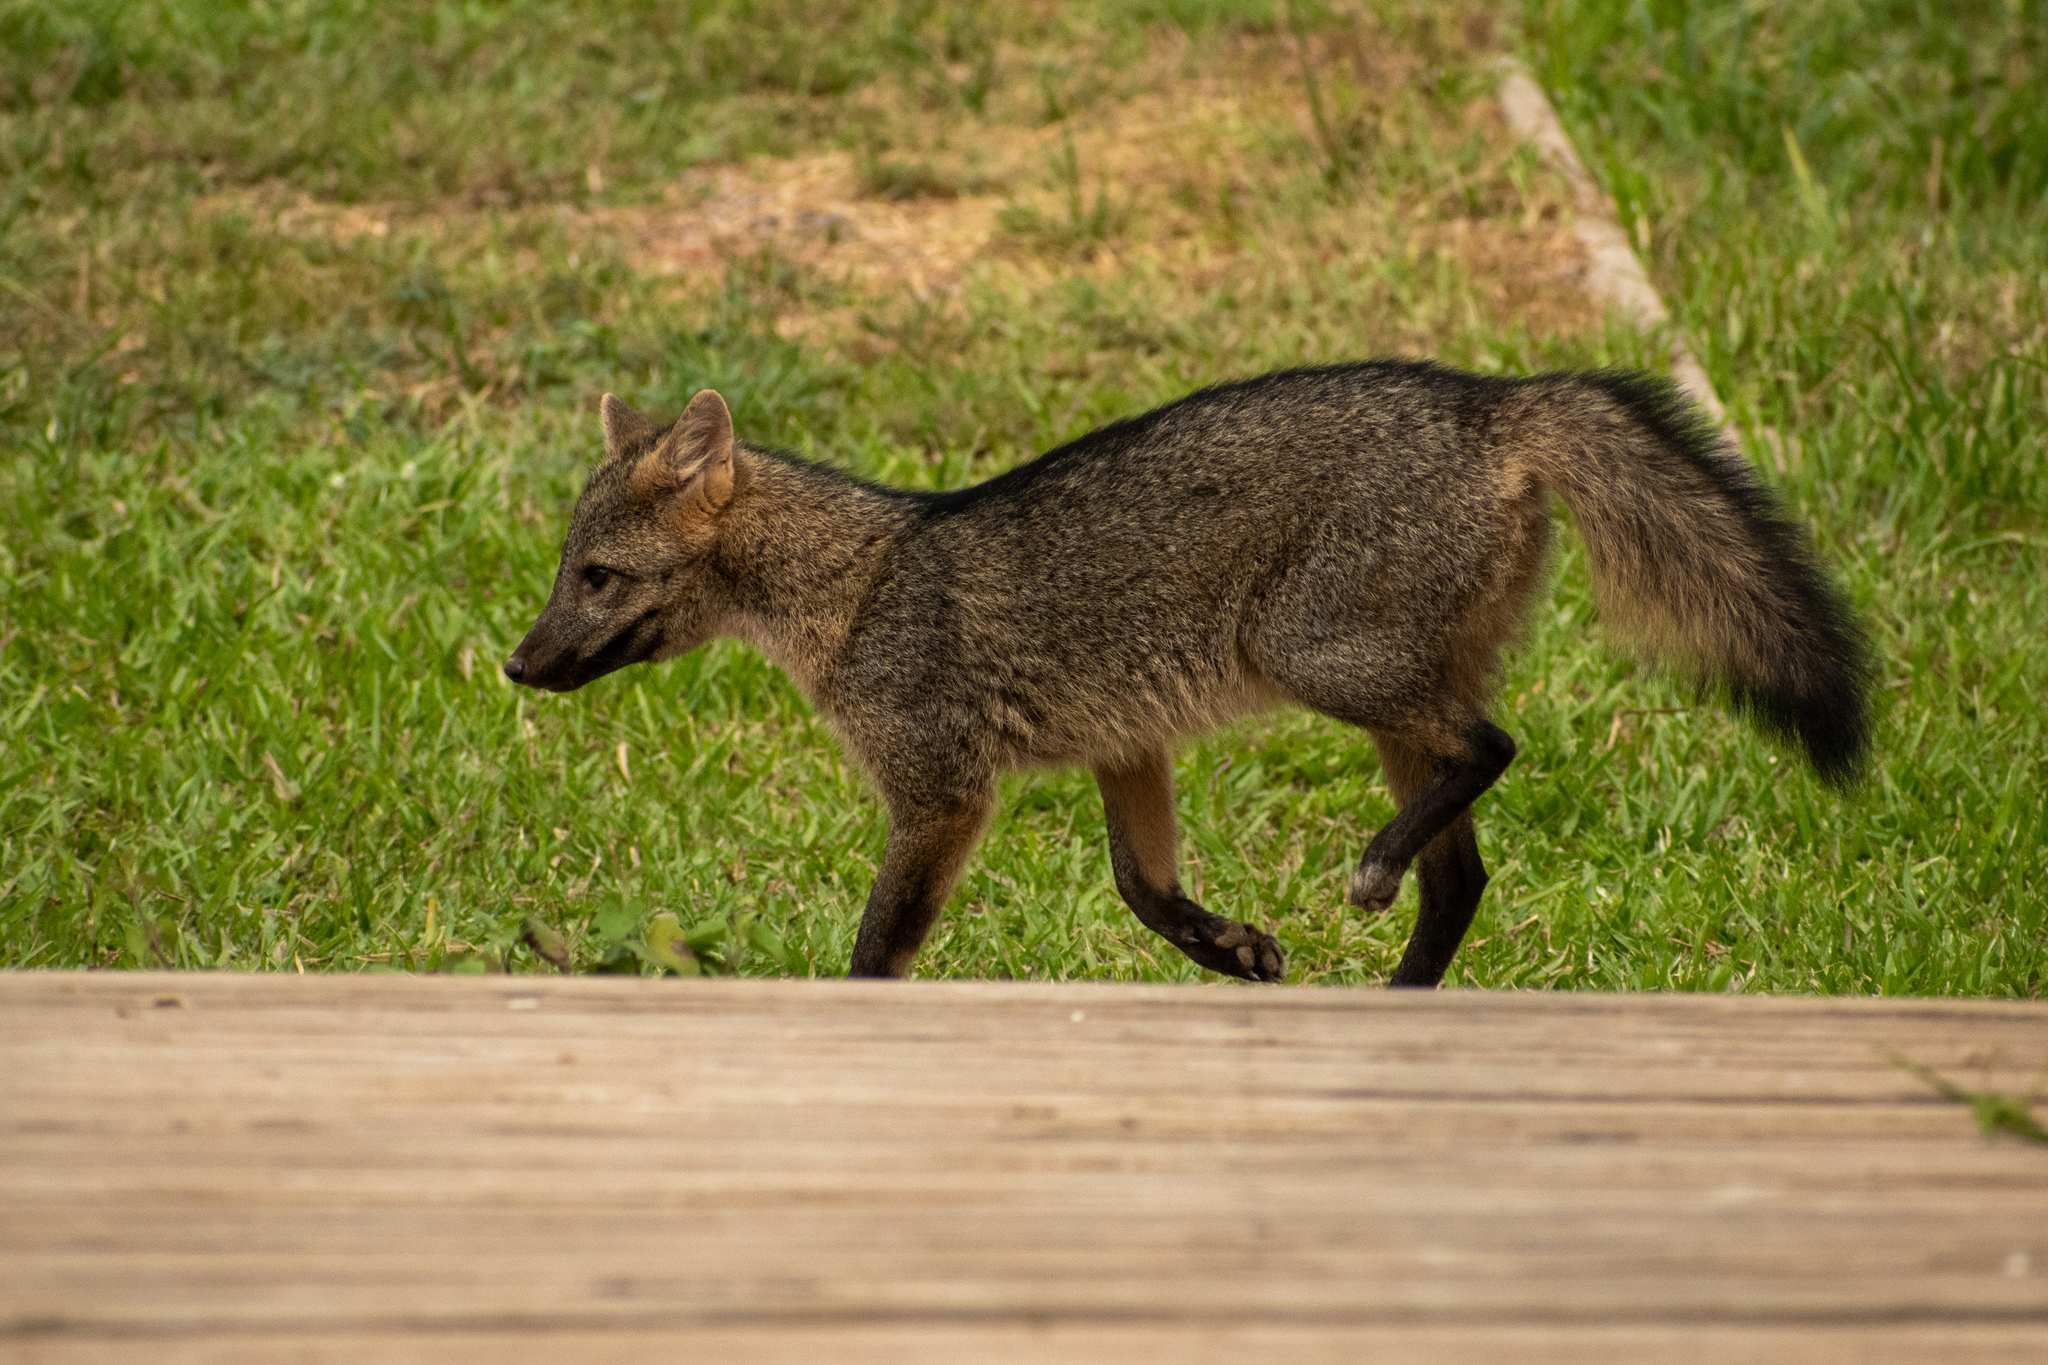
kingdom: Animalia
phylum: Chordata
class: Mammalia
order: Carnivora
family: Canidae
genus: Cerdocyon
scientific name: Cerdocyon thous
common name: Crab-eating fox
